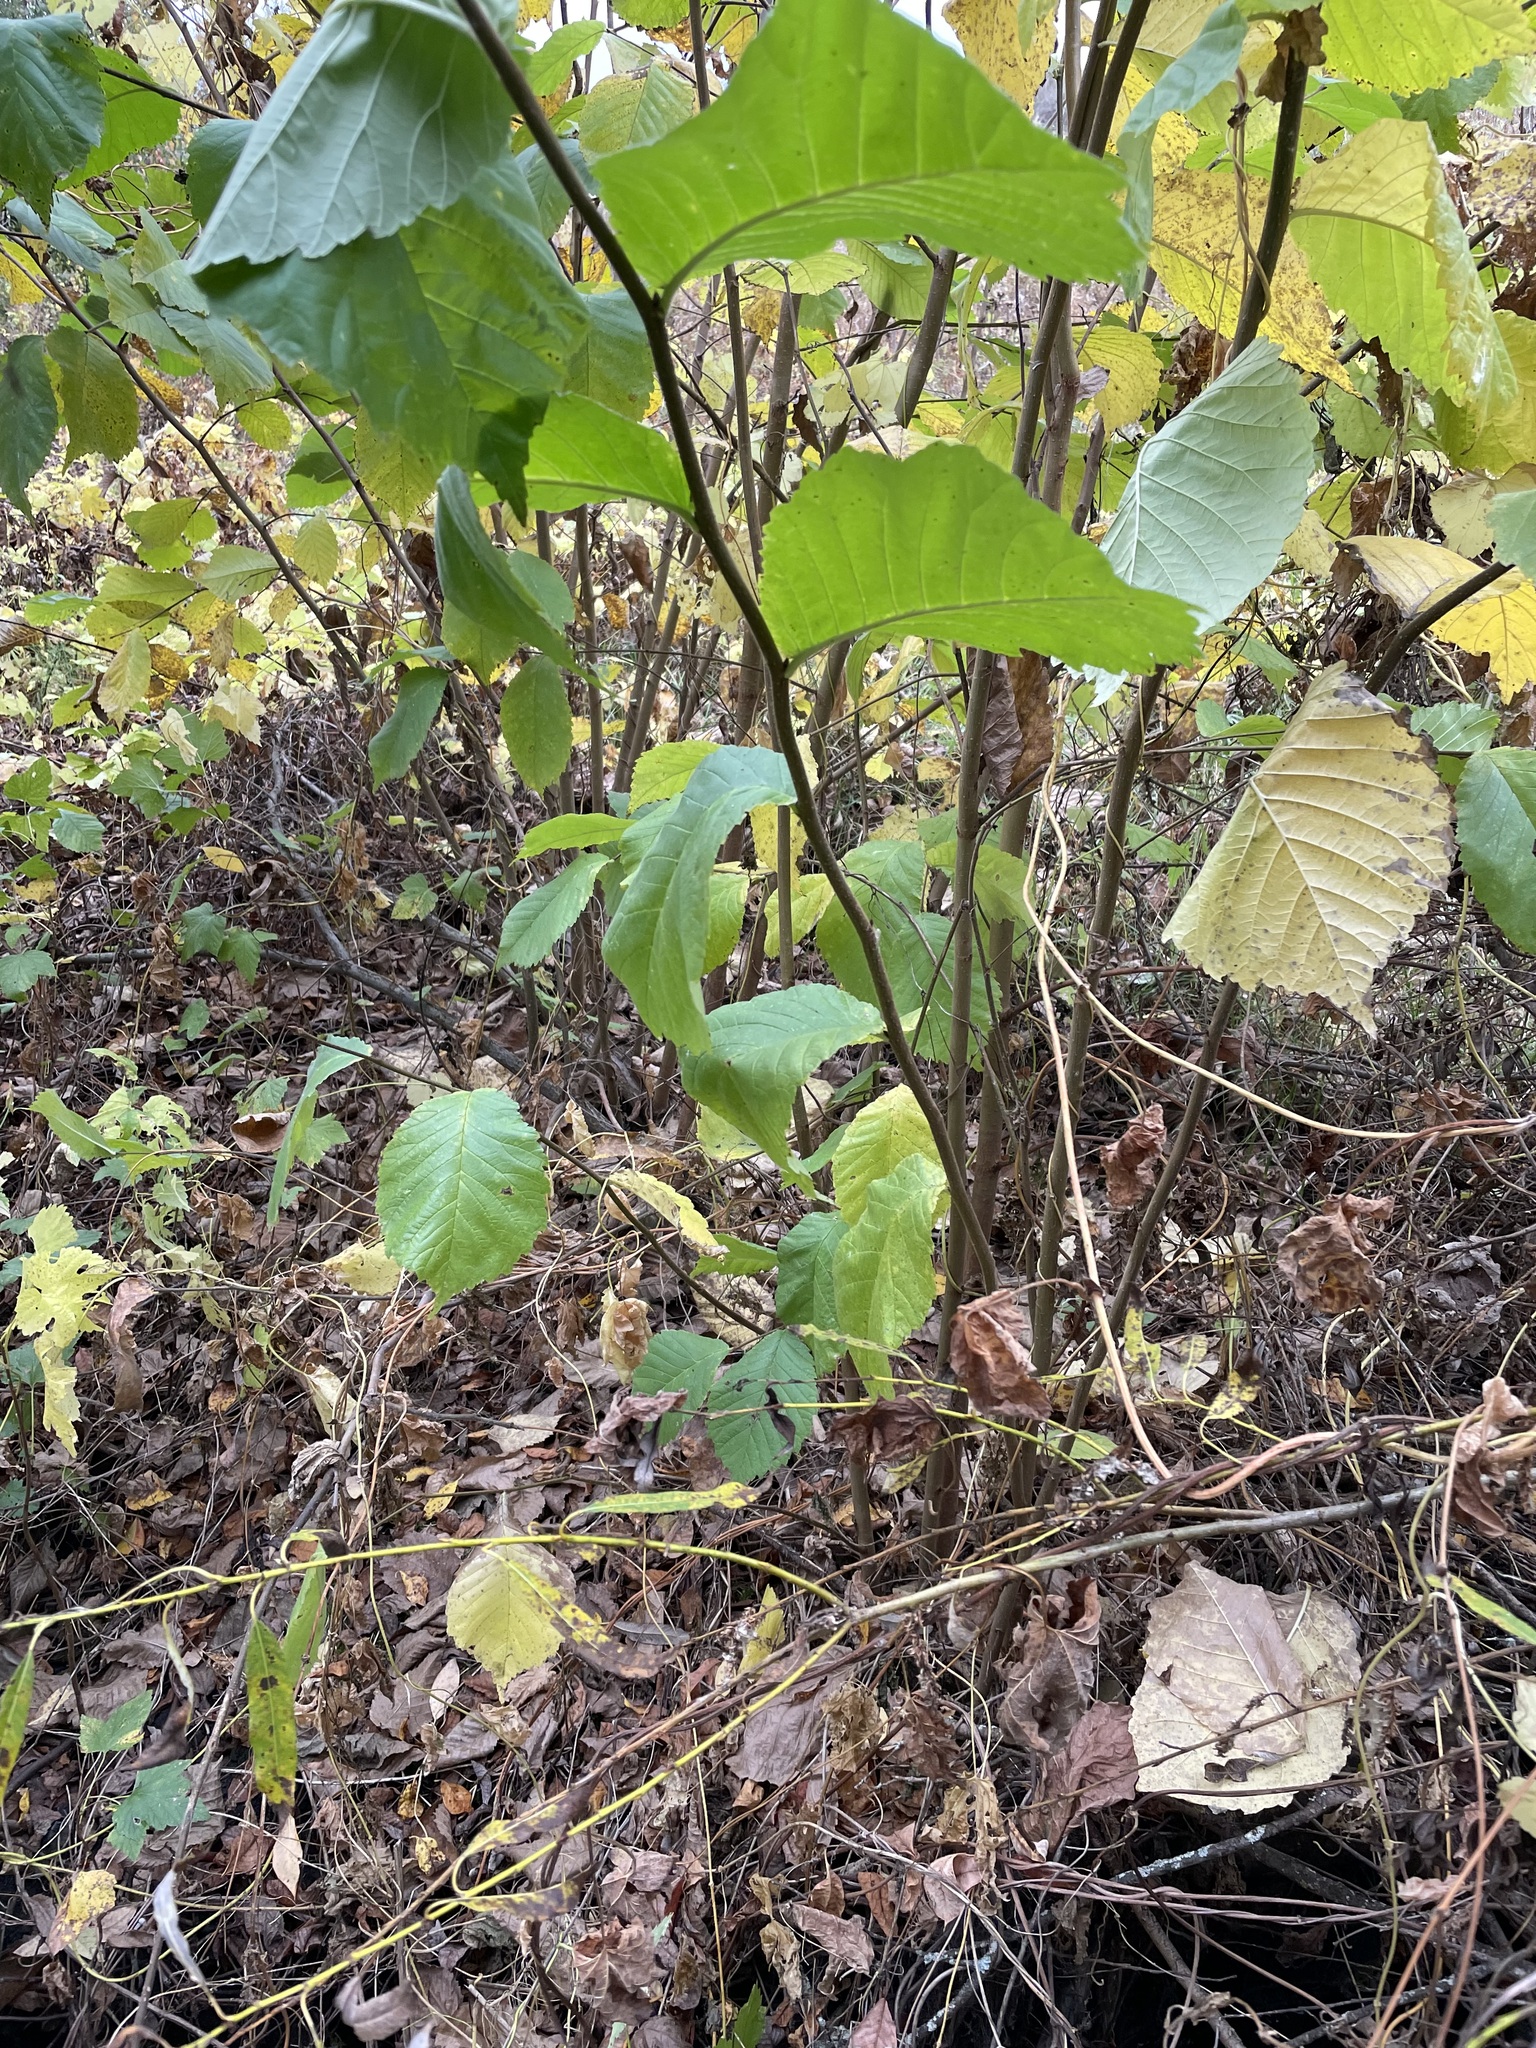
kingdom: Plantae
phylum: Tracheophyta
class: Magnoliopsida
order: Rosales
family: Ulmaceae
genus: Ulmus
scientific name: Ulmus glabra
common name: Wych elm
